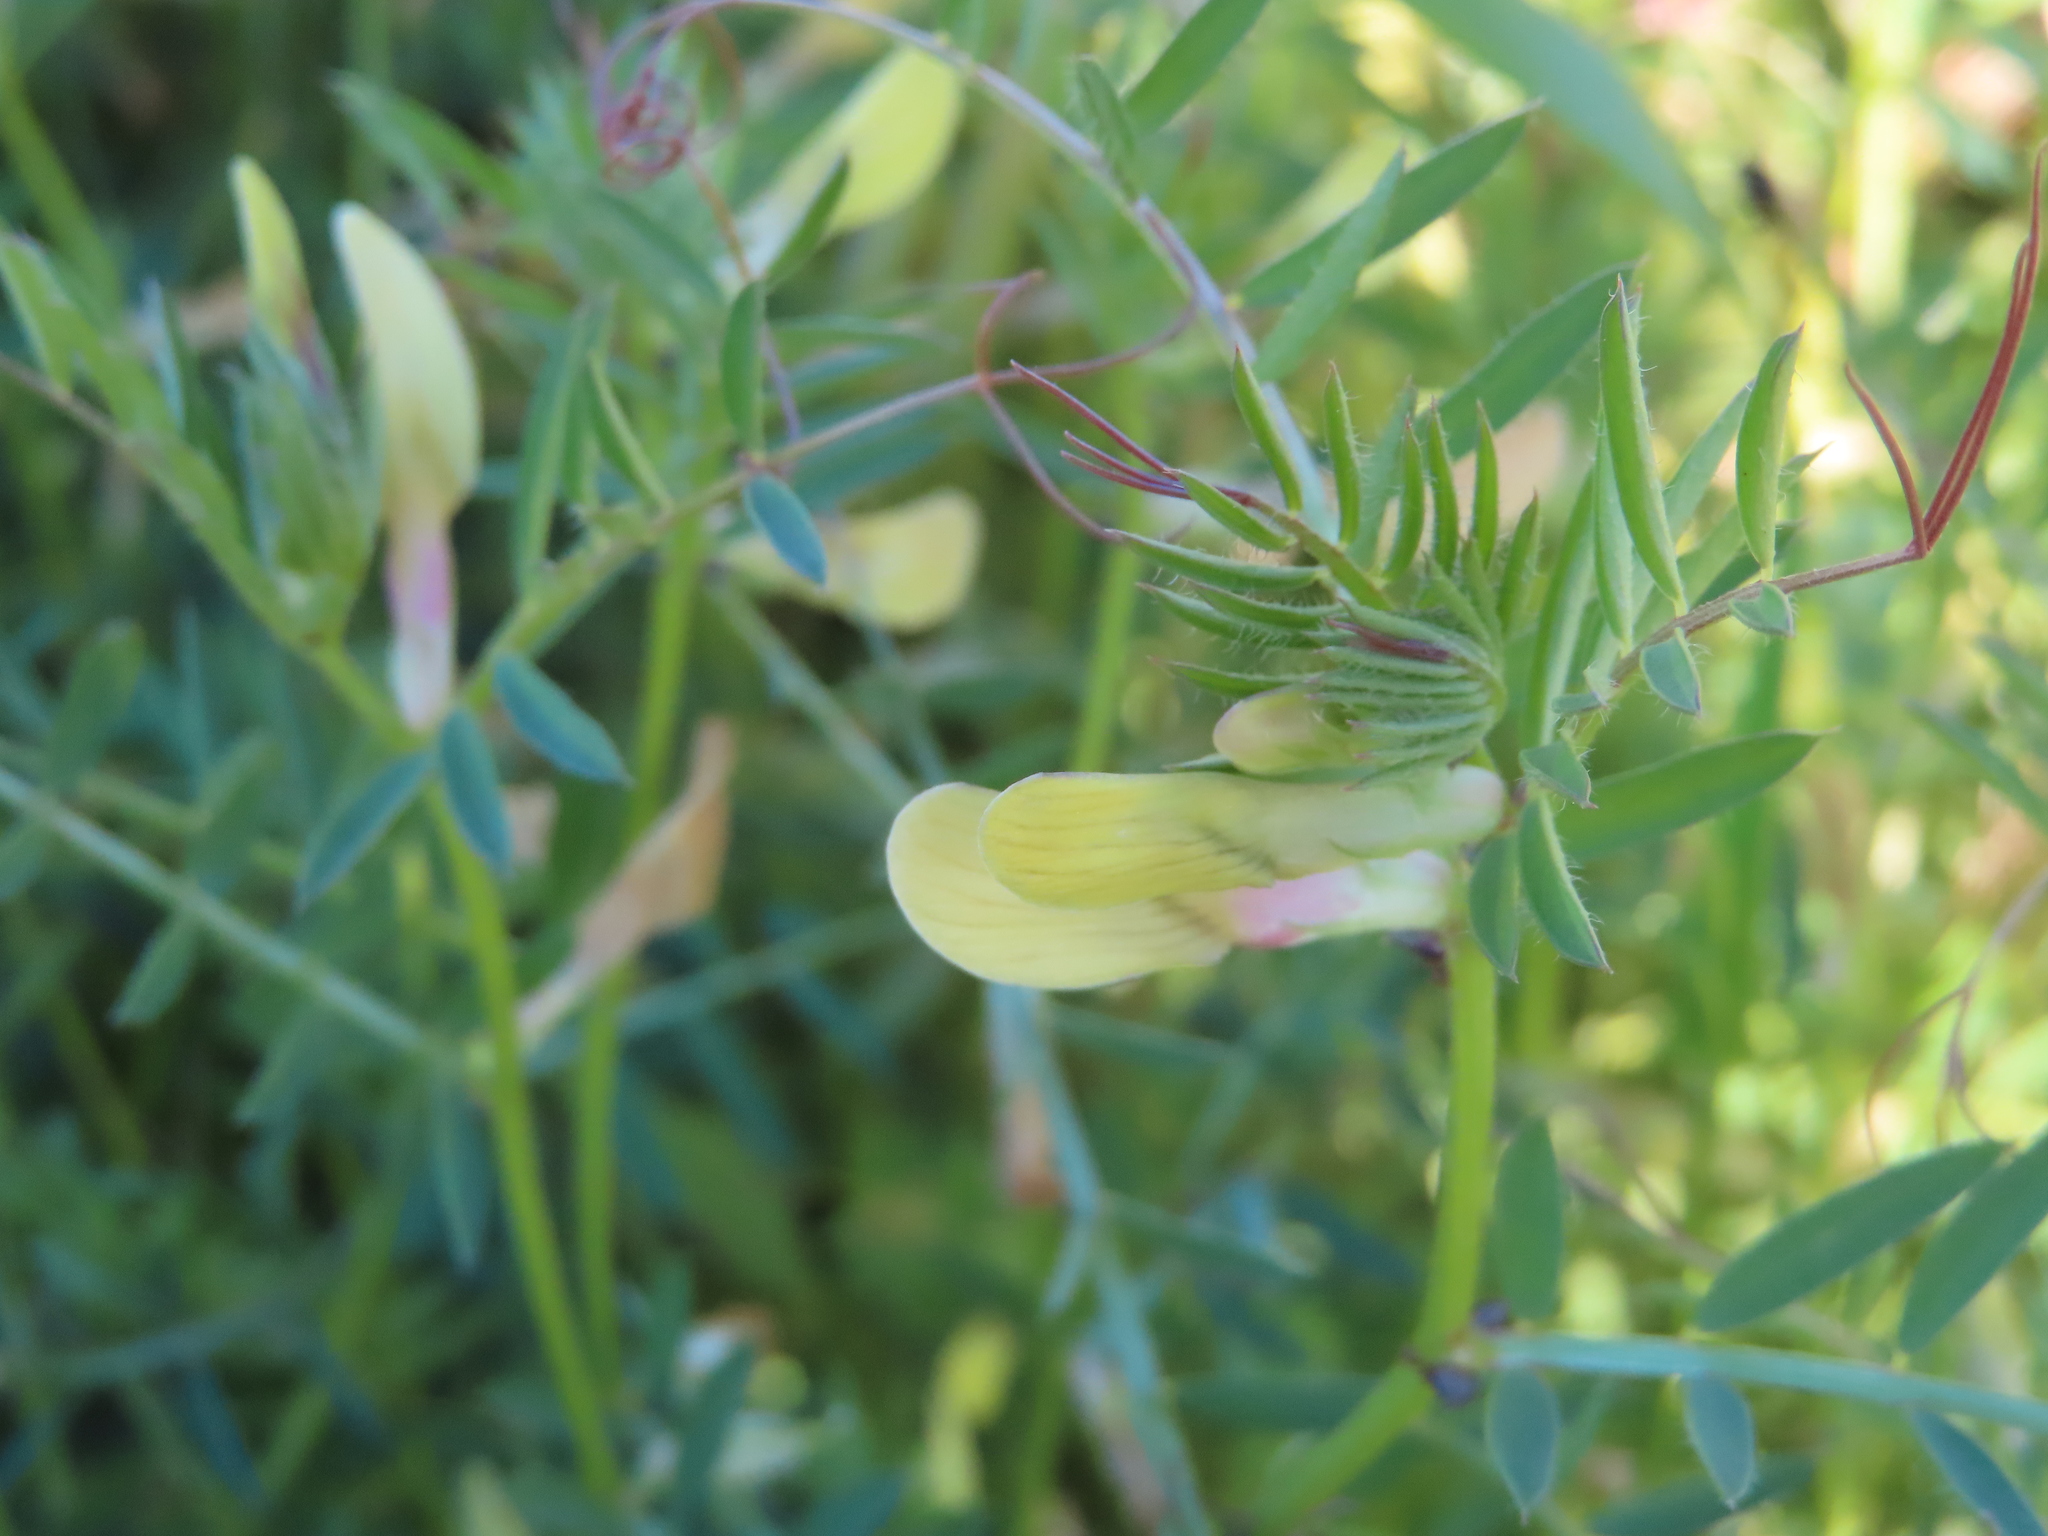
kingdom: Plantae
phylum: Tracheophyta
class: Magnoliopsida
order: Fabales
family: Fabaceae
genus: Vicia
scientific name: Vicia lutea
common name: Smooth yellow vetch
